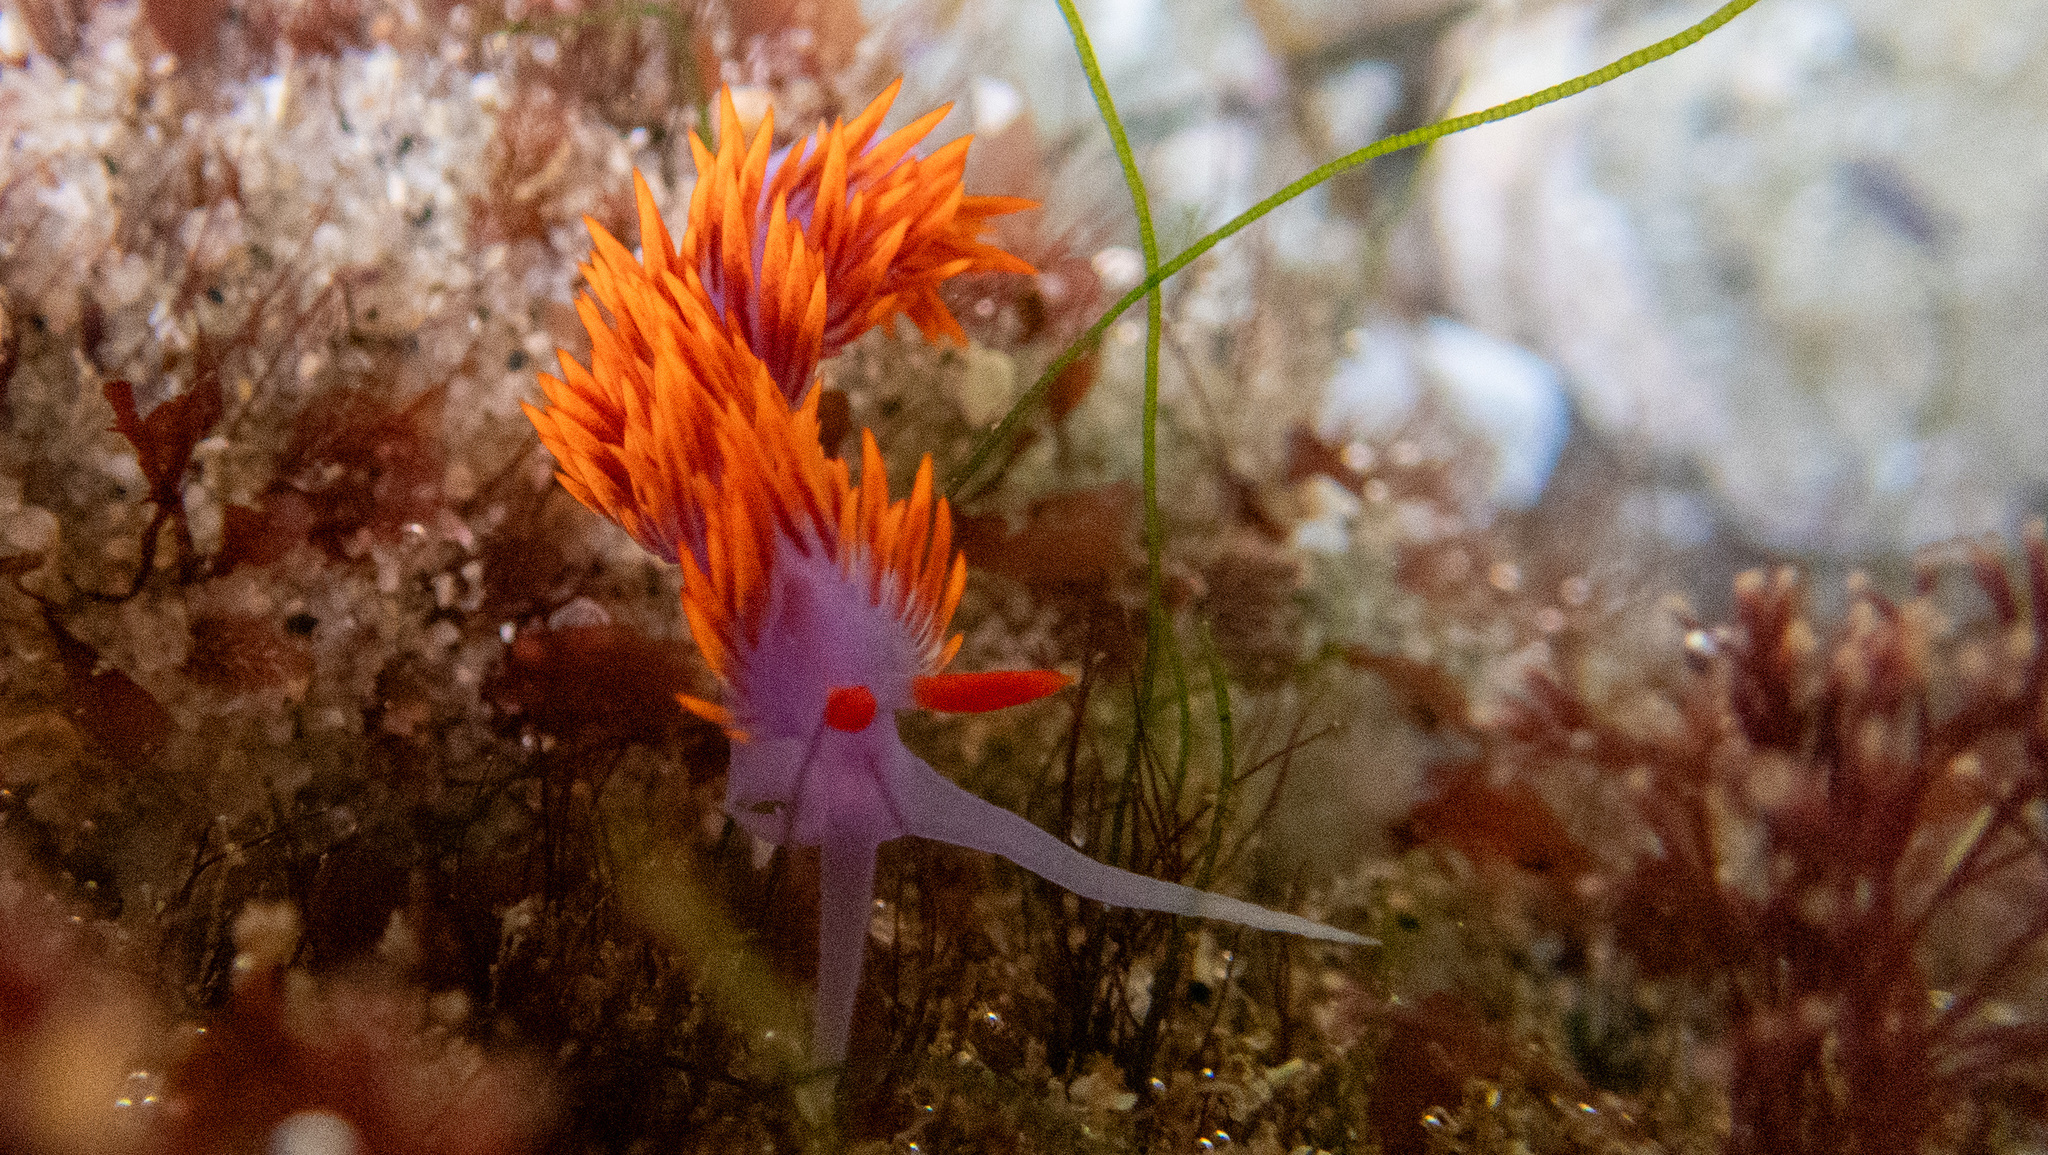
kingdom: Animalia
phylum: Mollusca
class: Gastropoda
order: Nudibranchia
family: Flabellinopsidae
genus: Flabellinopsis
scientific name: Flabellinopsis iodinea
